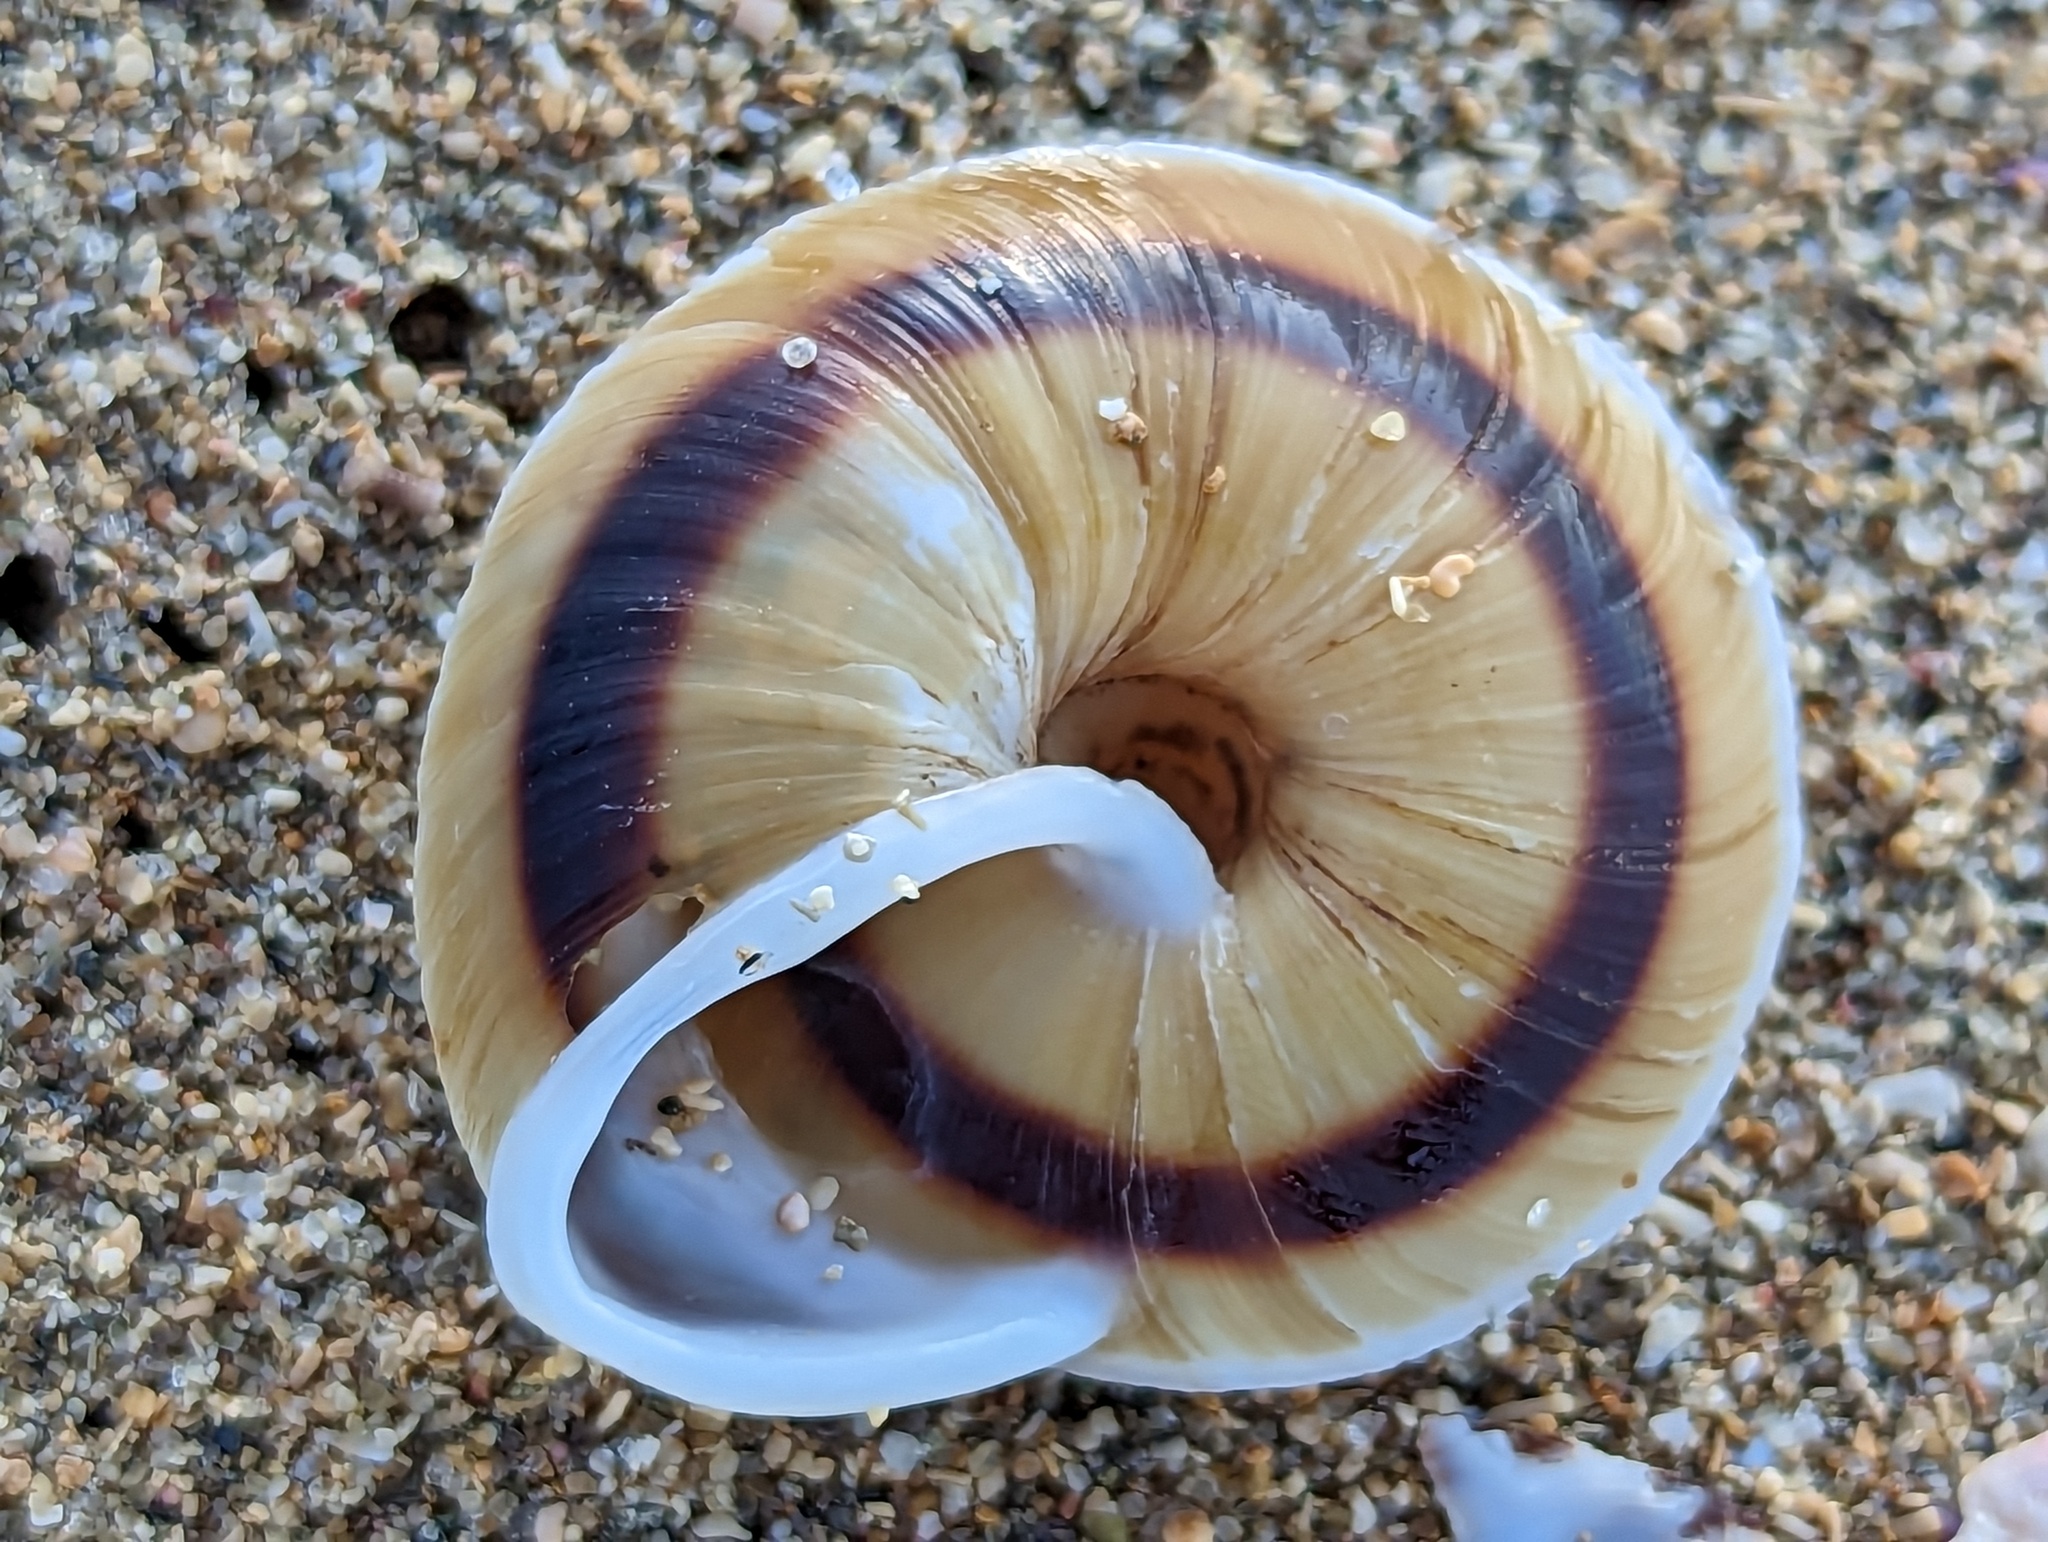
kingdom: Animalia
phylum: Mollusca
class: Gastropoda
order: Stylommatophora
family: Solaropsidae
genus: Caracolus
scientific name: Caracolus marginella
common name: Banded caracol
